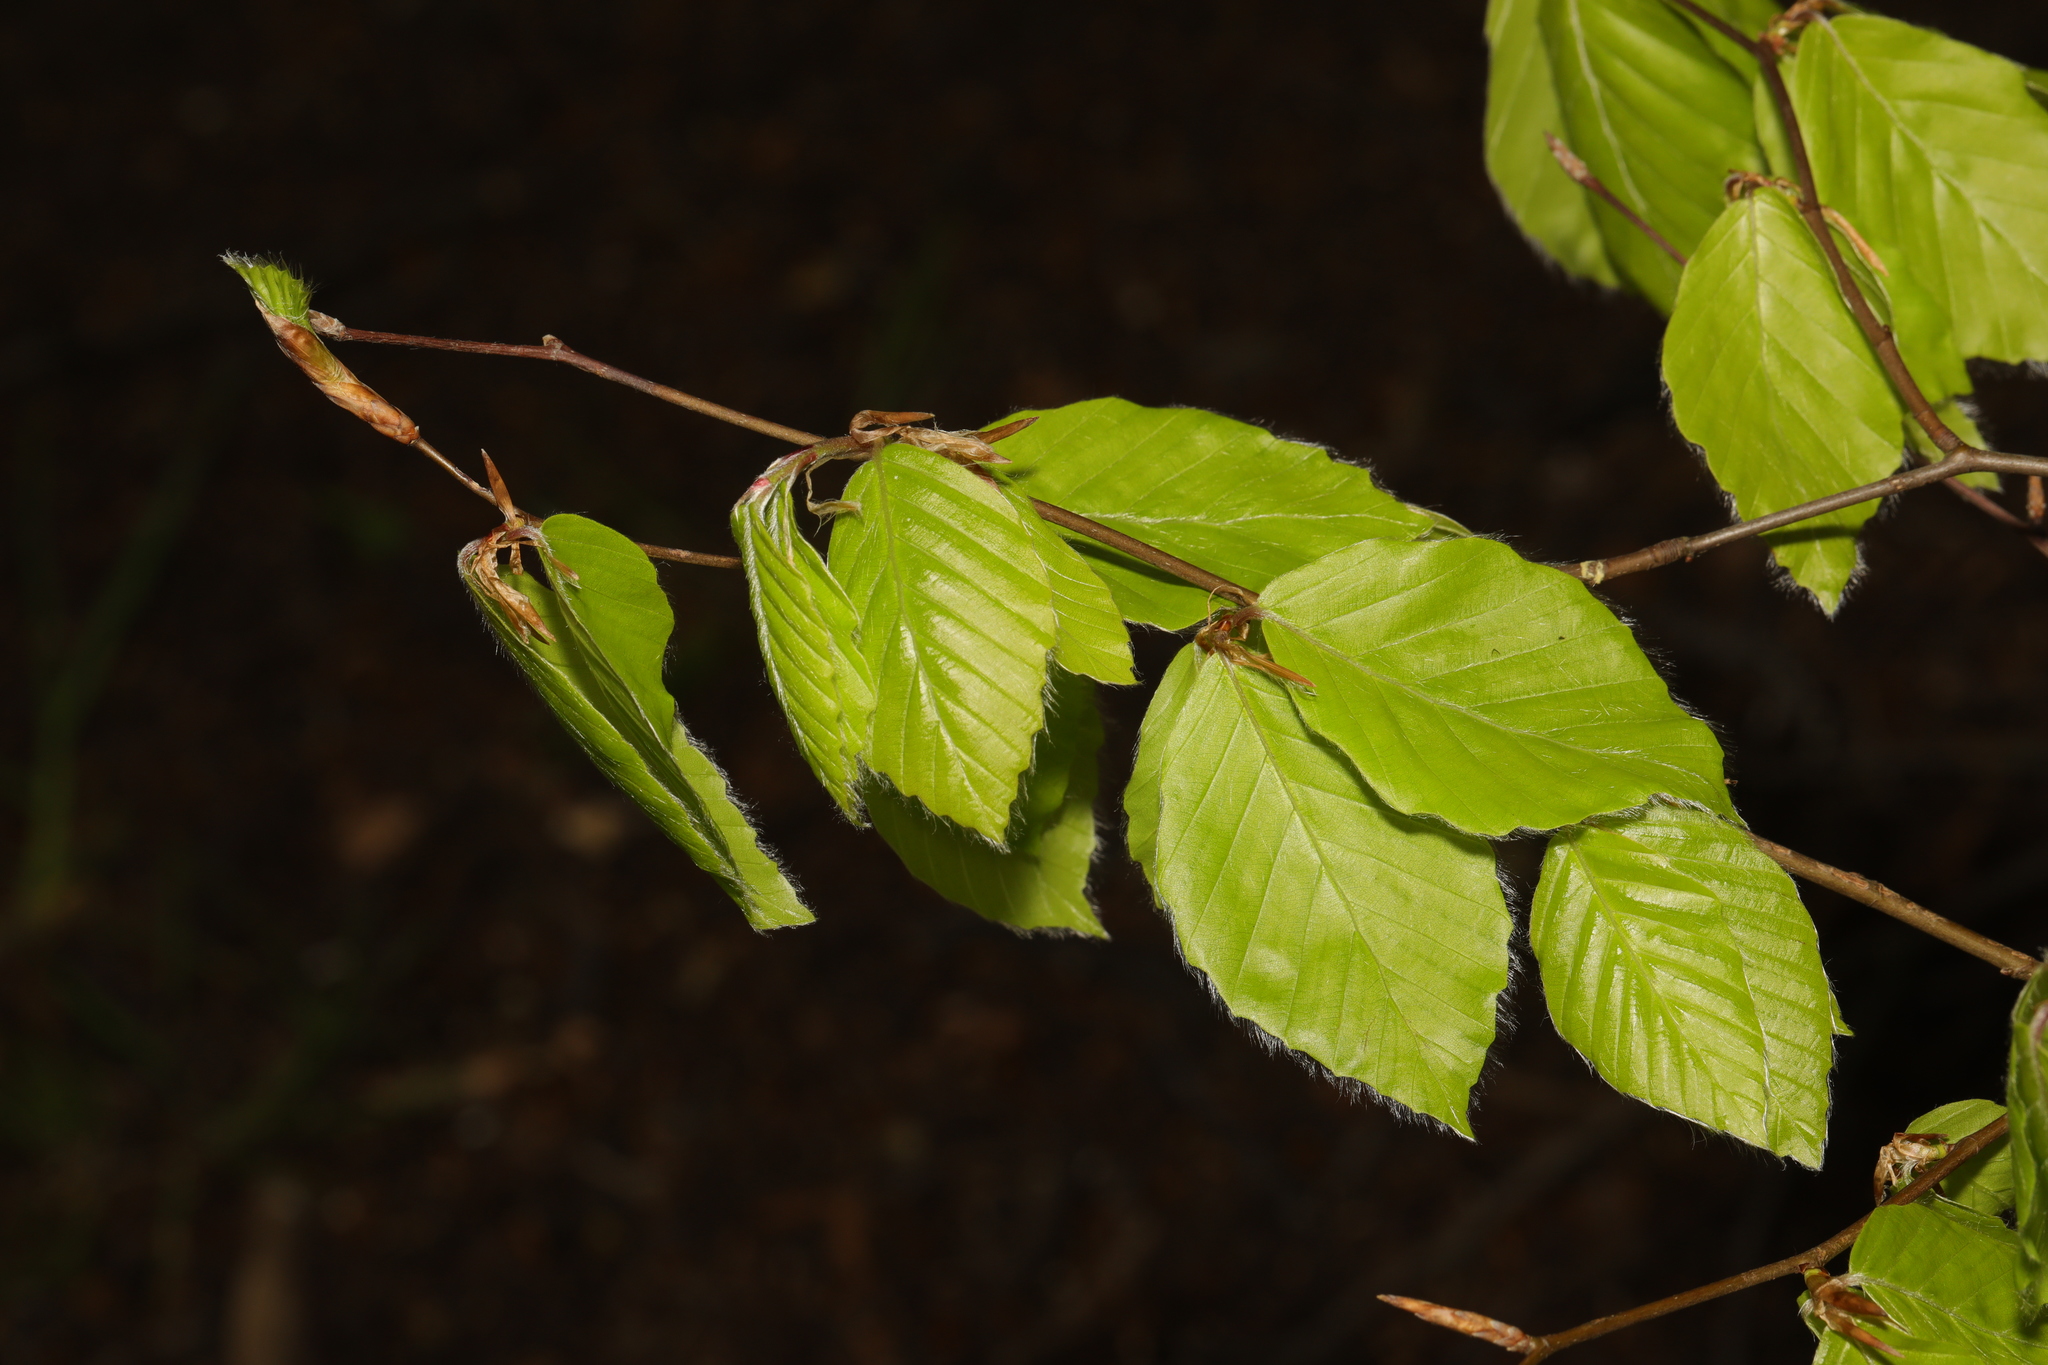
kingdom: Plantae
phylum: Tracheophyta
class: Magnoliopsida
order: Fagales
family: Betulaceae
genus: Carpinus
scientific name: Carpinus betulus
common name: Hornbeam
